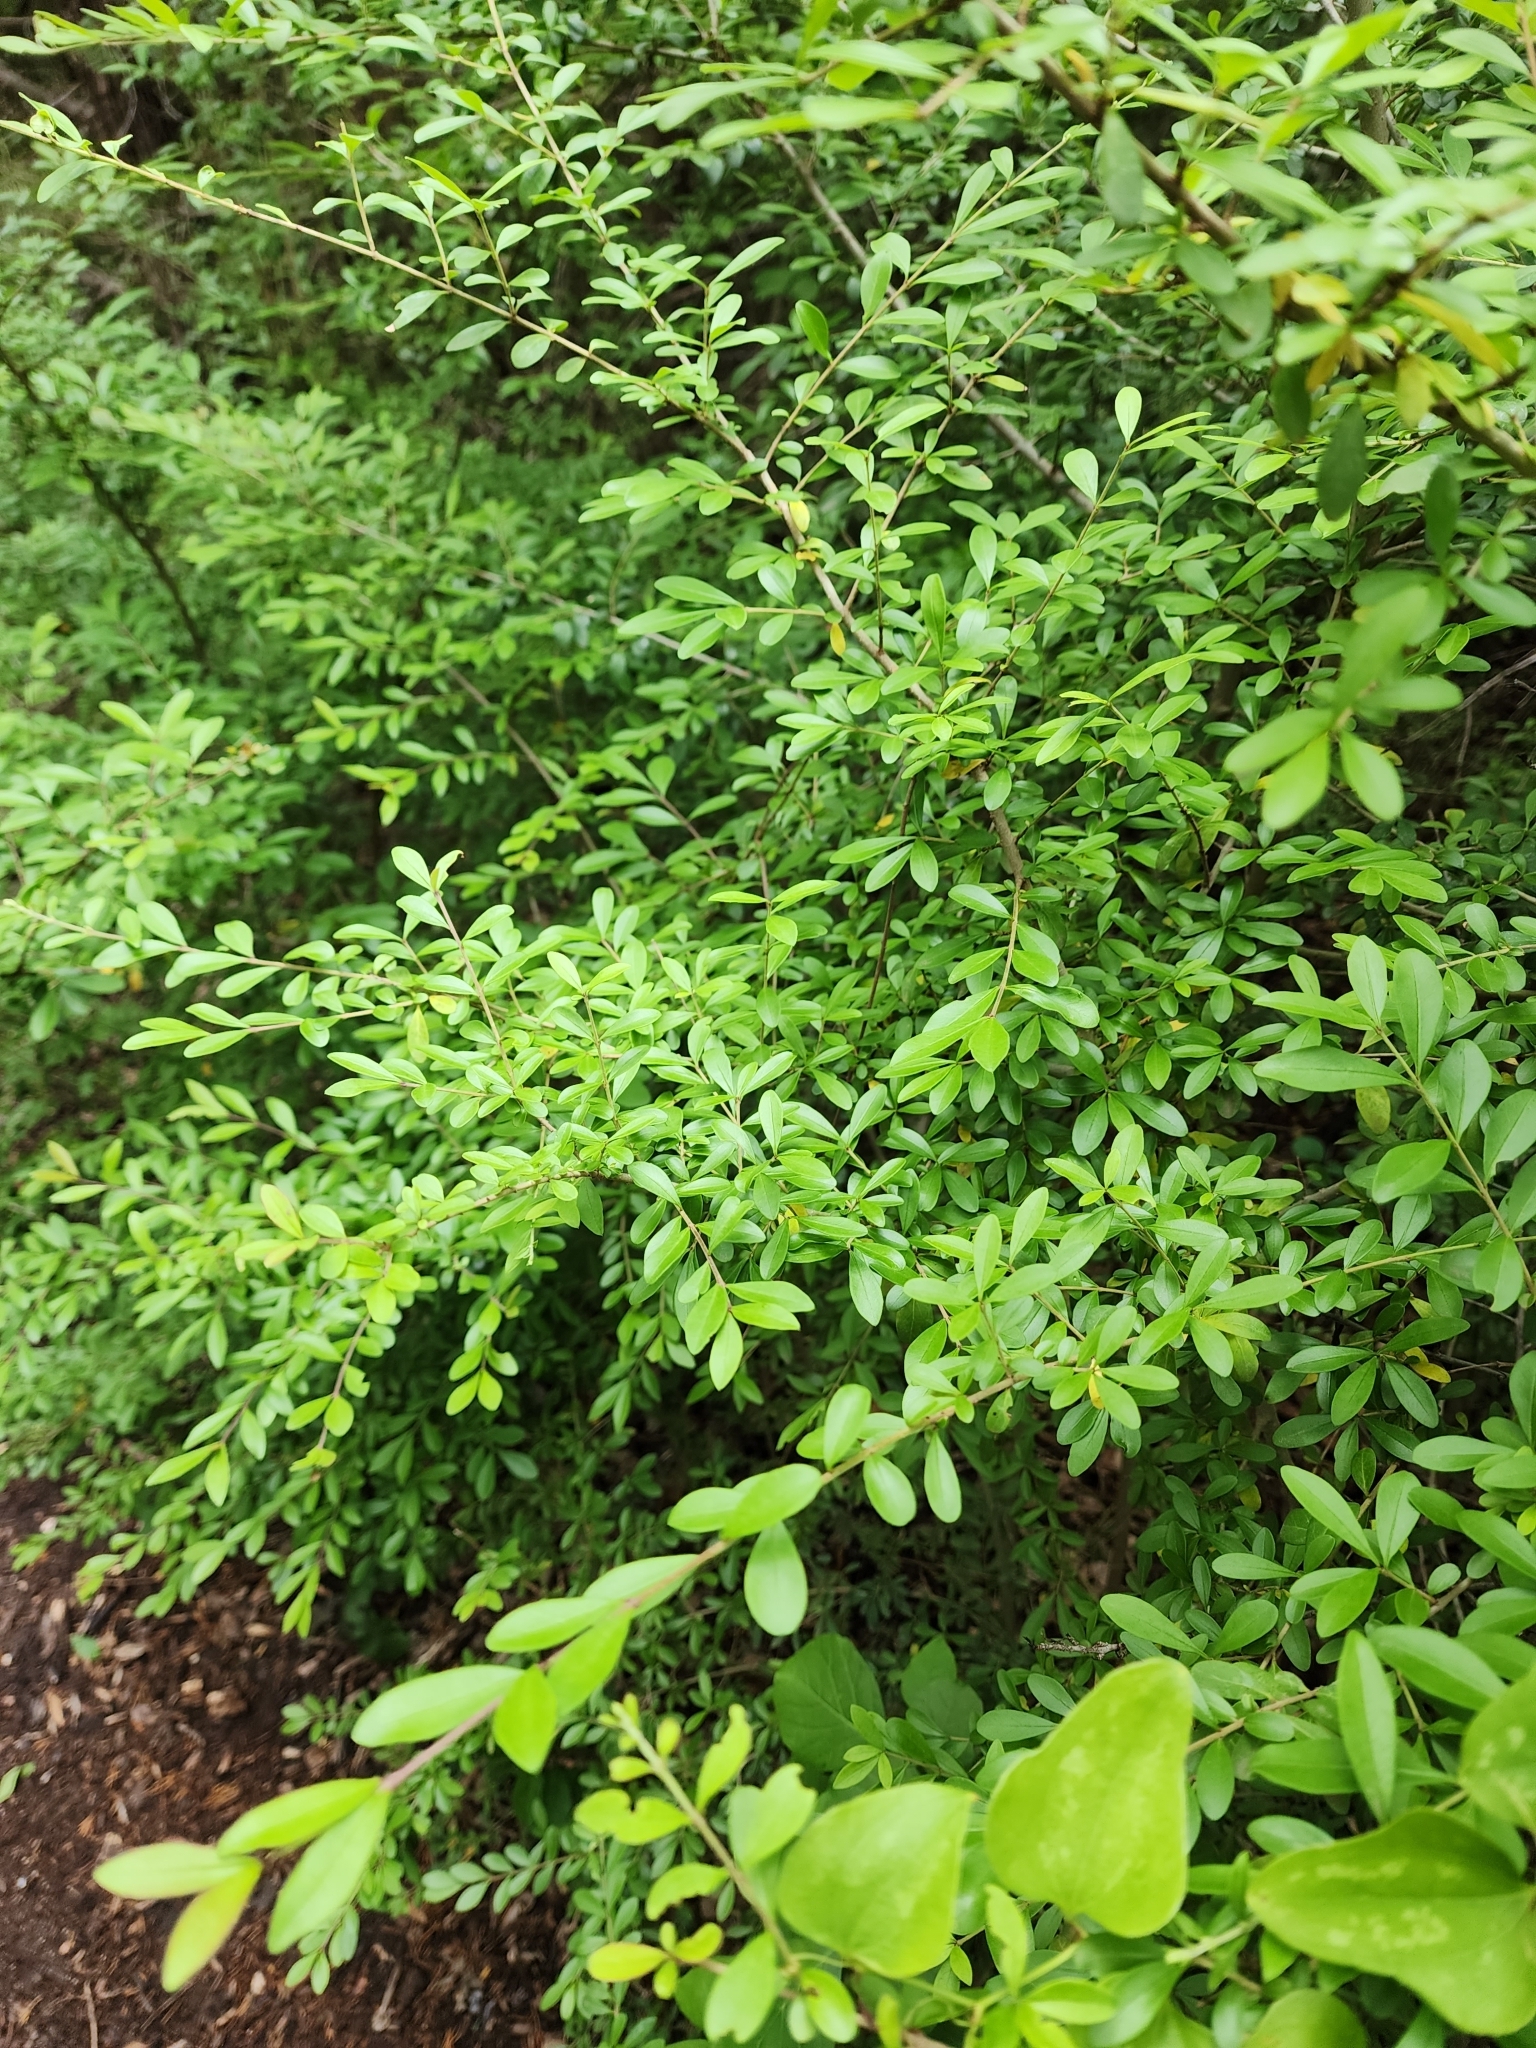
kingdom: Plantae
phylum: Tracheophyta
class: Magnoliopsida
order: Lamiales
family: Oleaceae
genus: Ligustrum
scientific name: Ligustrum quihoui
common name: Waxyleaf privet
